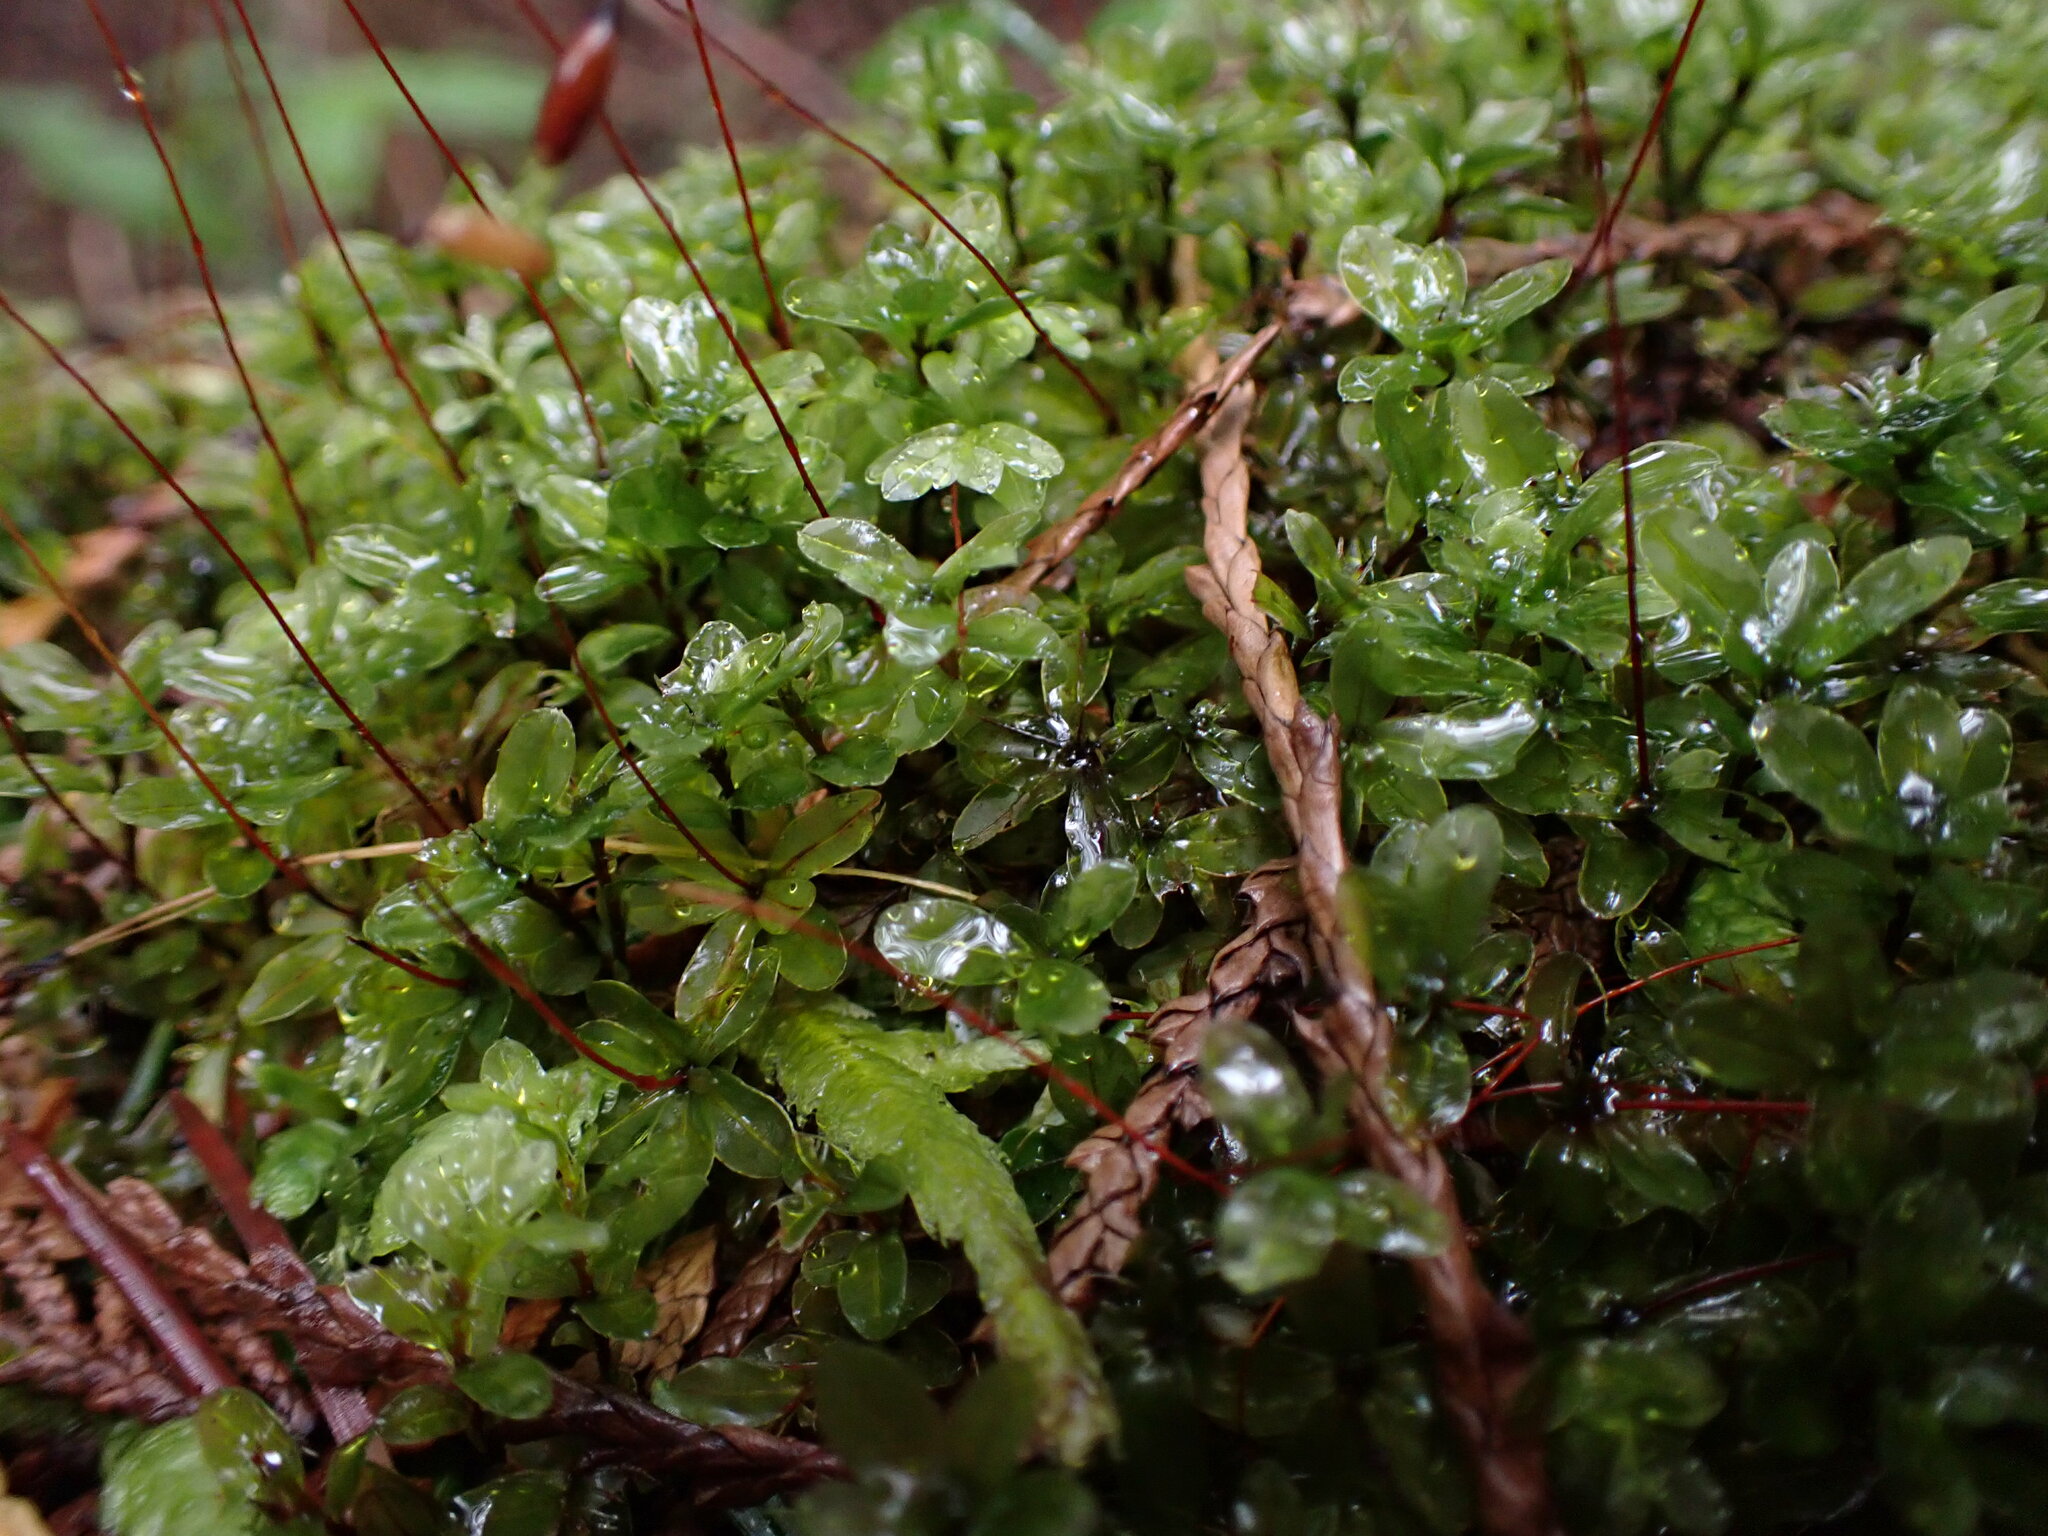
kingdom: Plantae
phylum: Bryophyta
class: Bryopsida
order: Bryales
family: Mniaceae
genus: Rhizomnium
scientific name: Rhizomnium glabrescens
